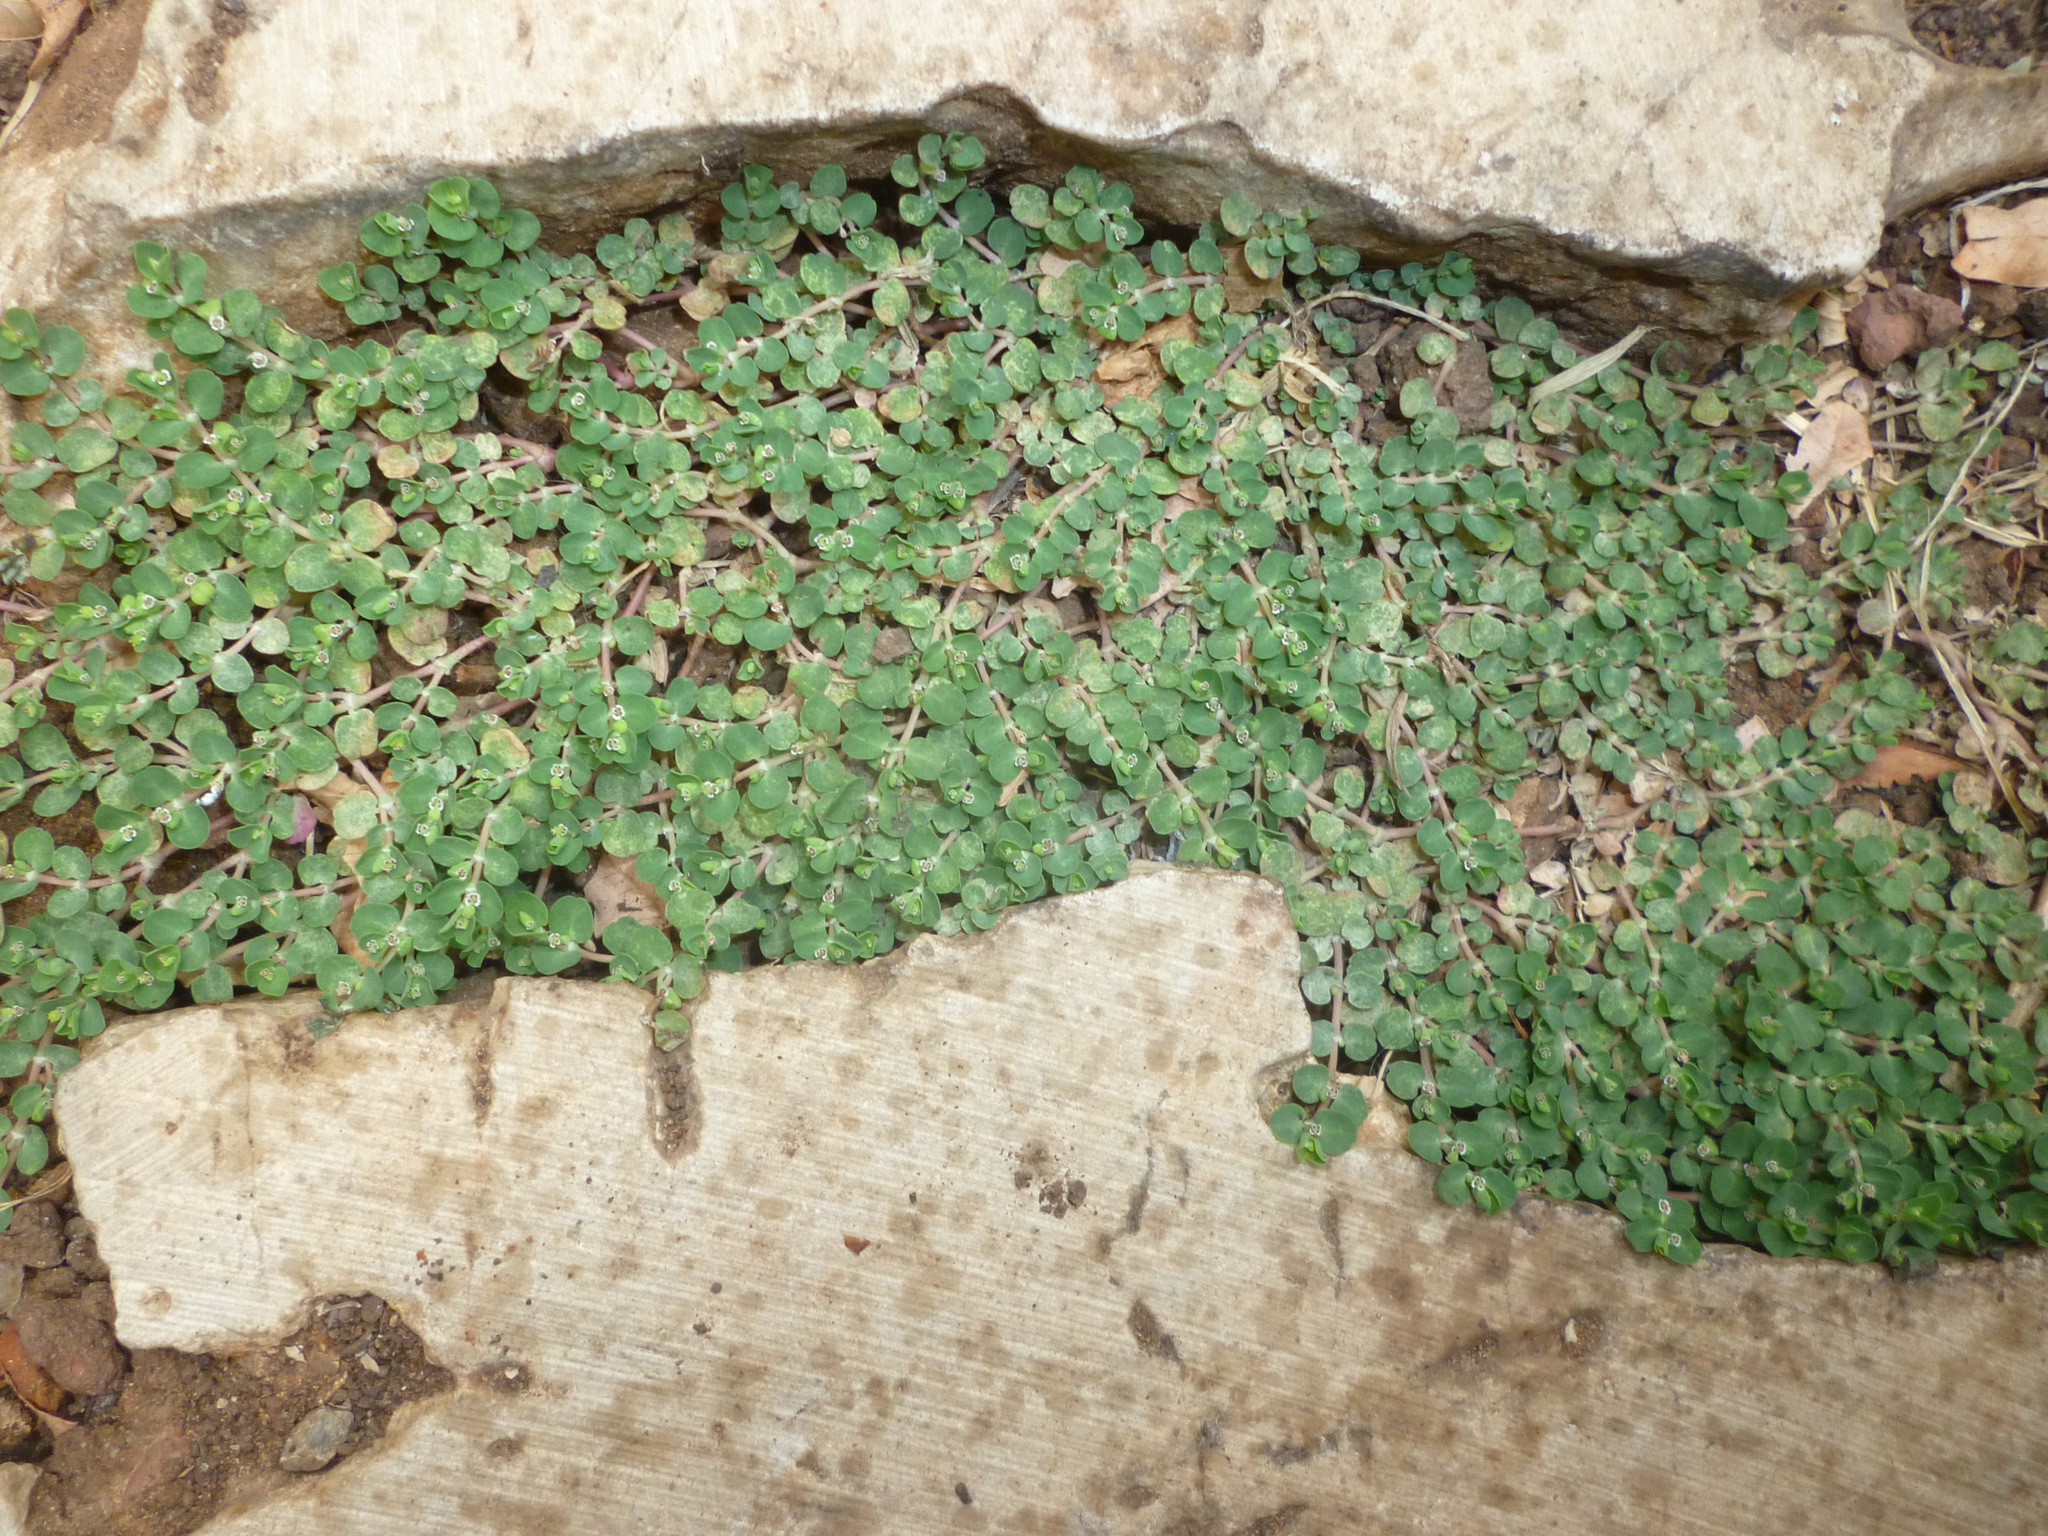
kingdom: Plantae
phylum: Tracheophyta
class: Magnoliopsida
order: Malpighiales
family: Euphorbiaceae
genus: Euphorbia
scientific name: Euphorbia serpens
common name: Matted sandmat
